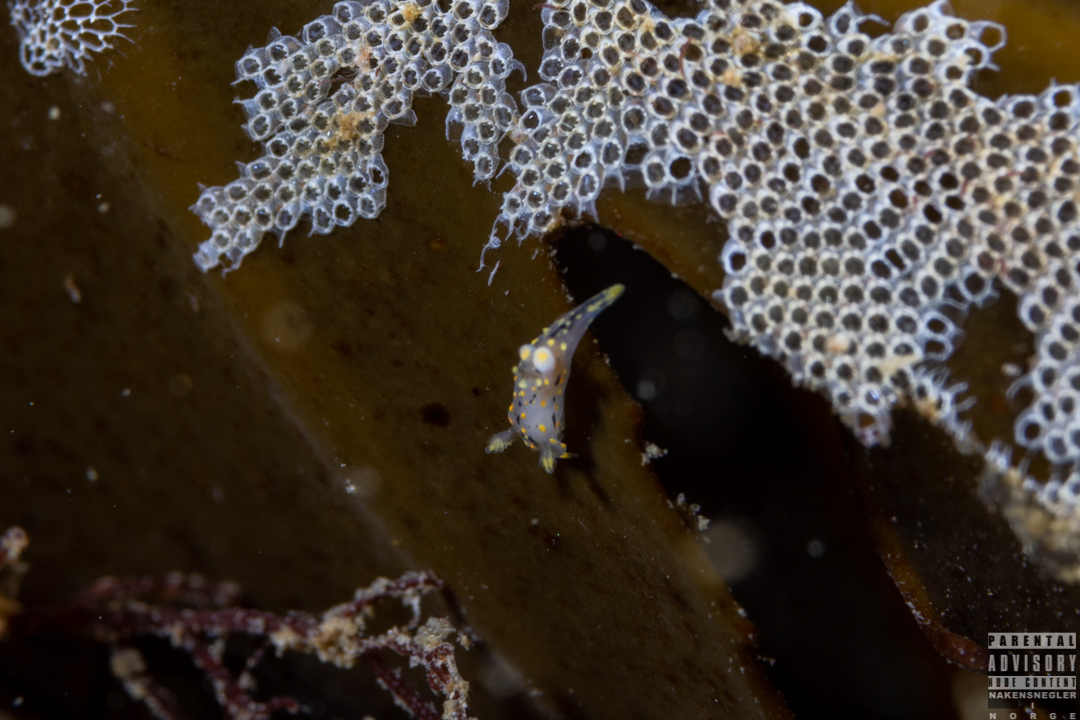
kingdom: Animalia
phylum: Mollusca
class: Gastropoda
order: Nudibranchia
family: Polyceridae
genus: Polycera
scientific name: Polycera norvegica
